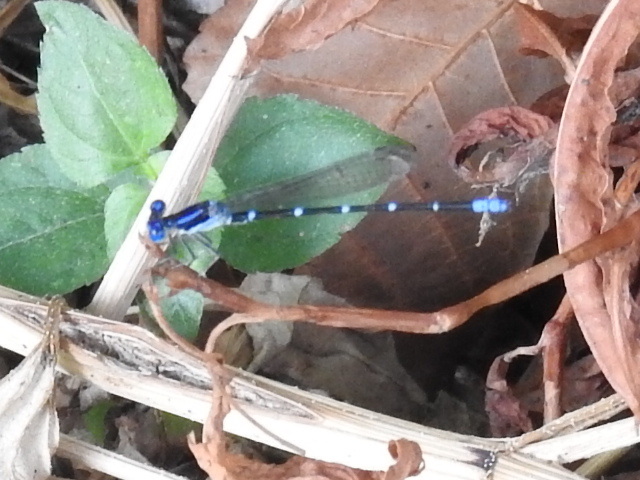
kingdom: Animalia
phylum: Arthropoda
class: Insecta
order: Odonata
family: Coenagrionidae
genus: Argia
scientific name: Argia sedula
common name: Blue-ringed dancer
